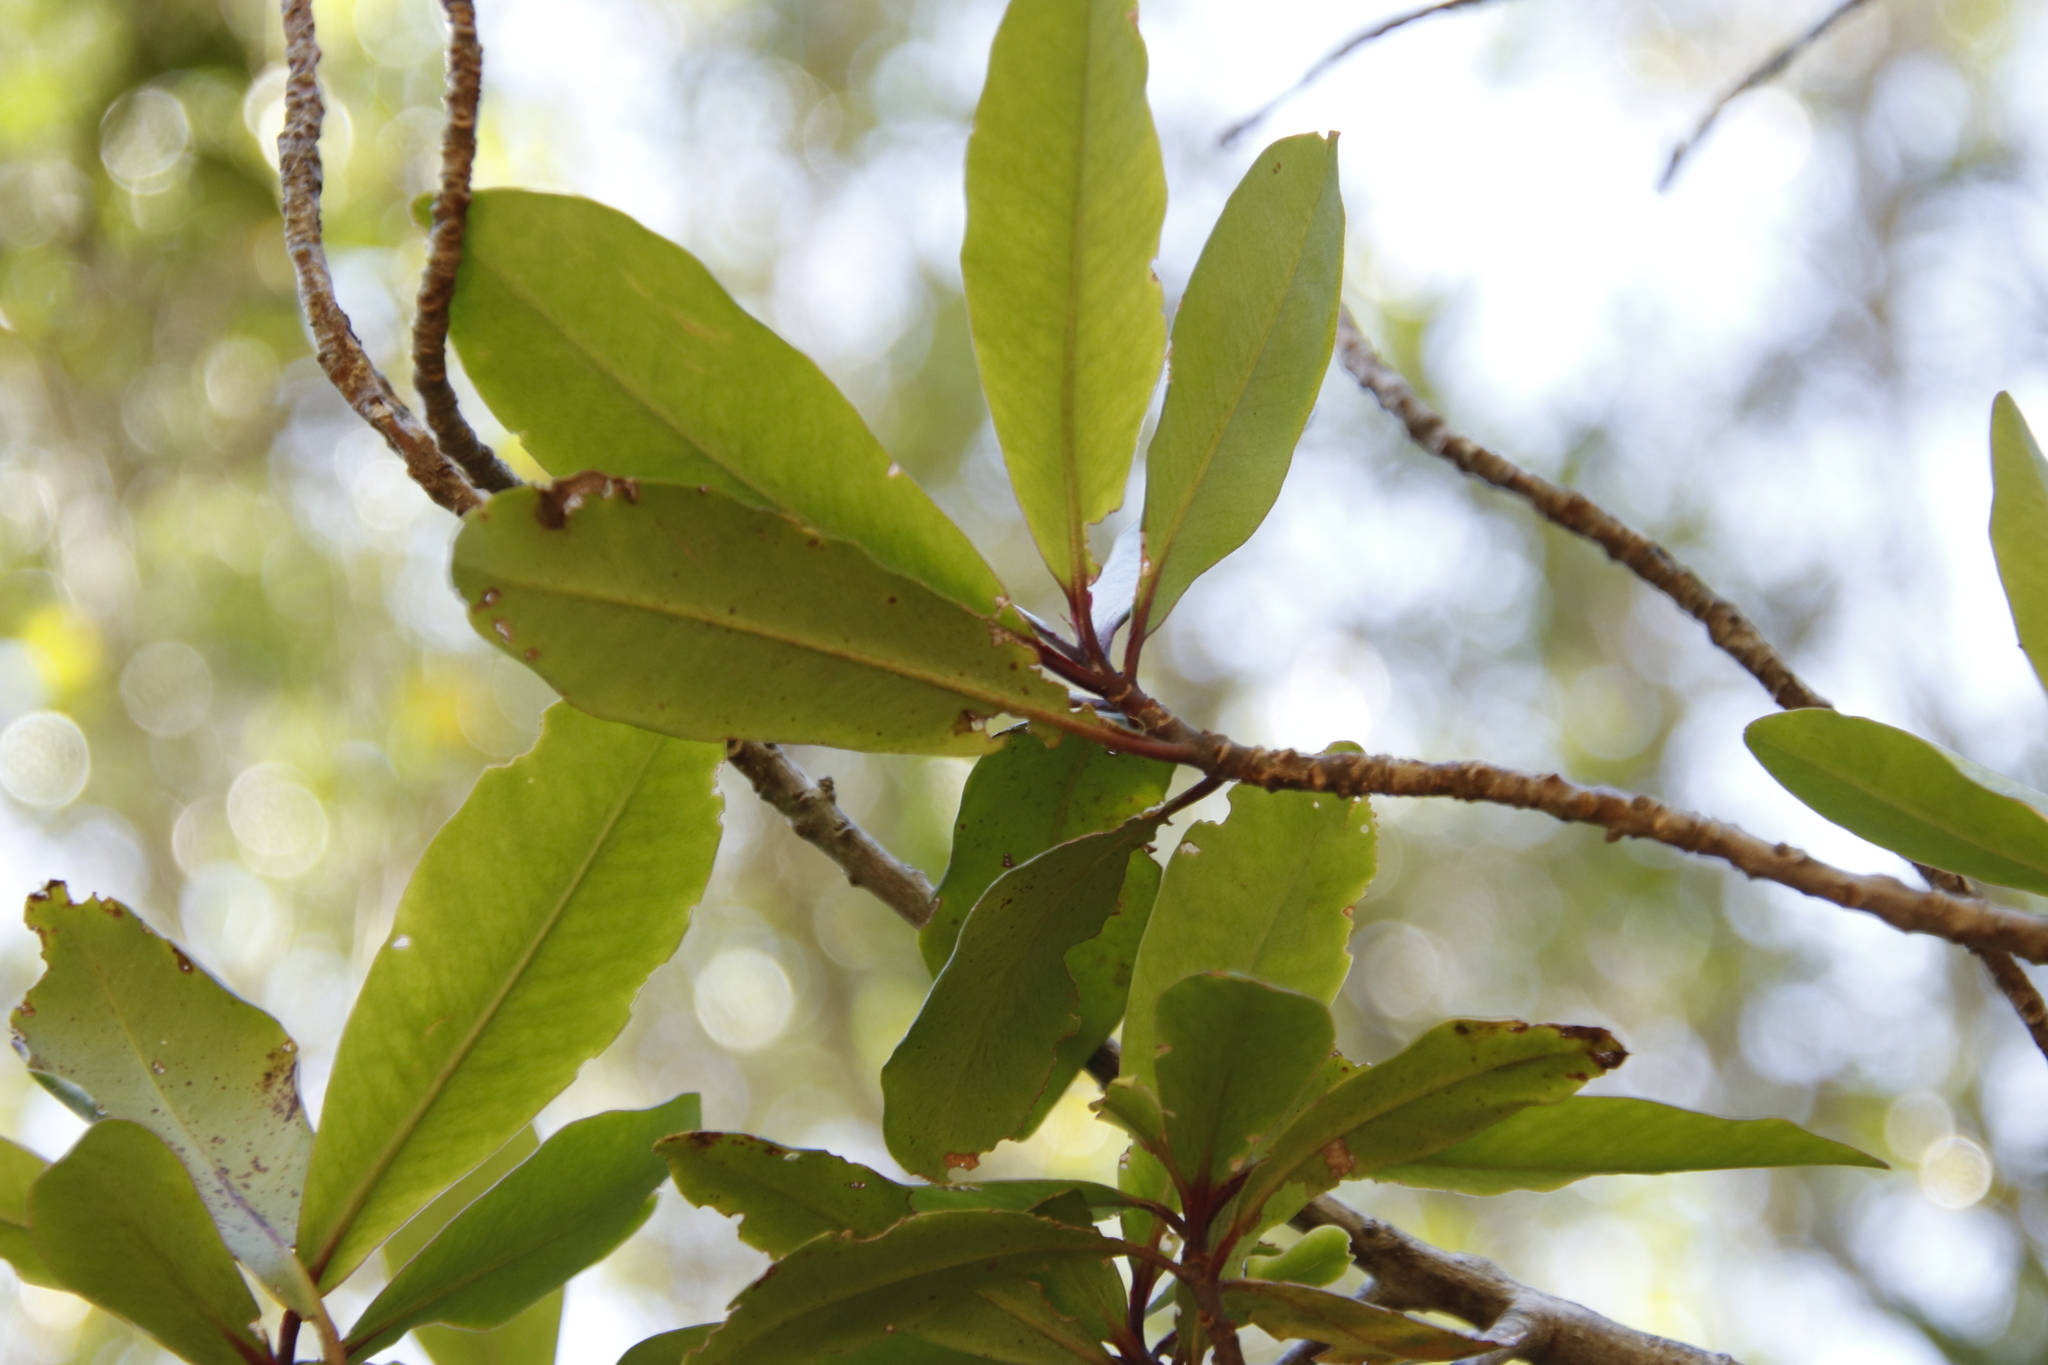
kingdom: Plantae
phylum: Tracheophyta
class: Magnoliopsida
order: Ericales
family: Primulaceae
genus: Myrsine
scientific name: Myrsine melanophloeos
